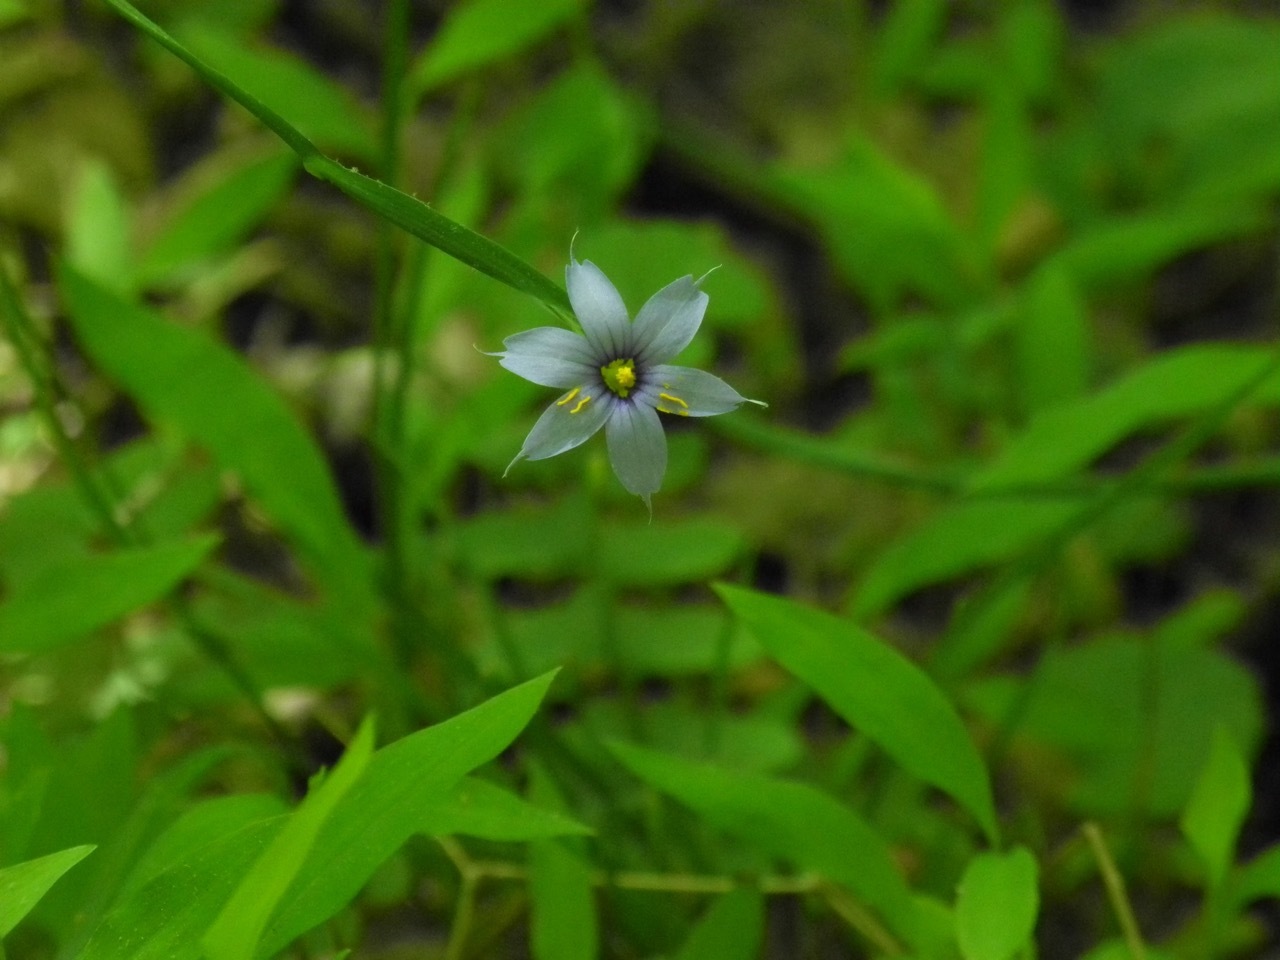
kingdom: Plantae
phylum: Tracheophyta
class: Liliopsida
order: Asparagales
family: Iridaceae
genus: Sisyrinchium
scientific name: Sisyrinchium angustifolium
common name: Narrow-leaf blue-eyed-grass
